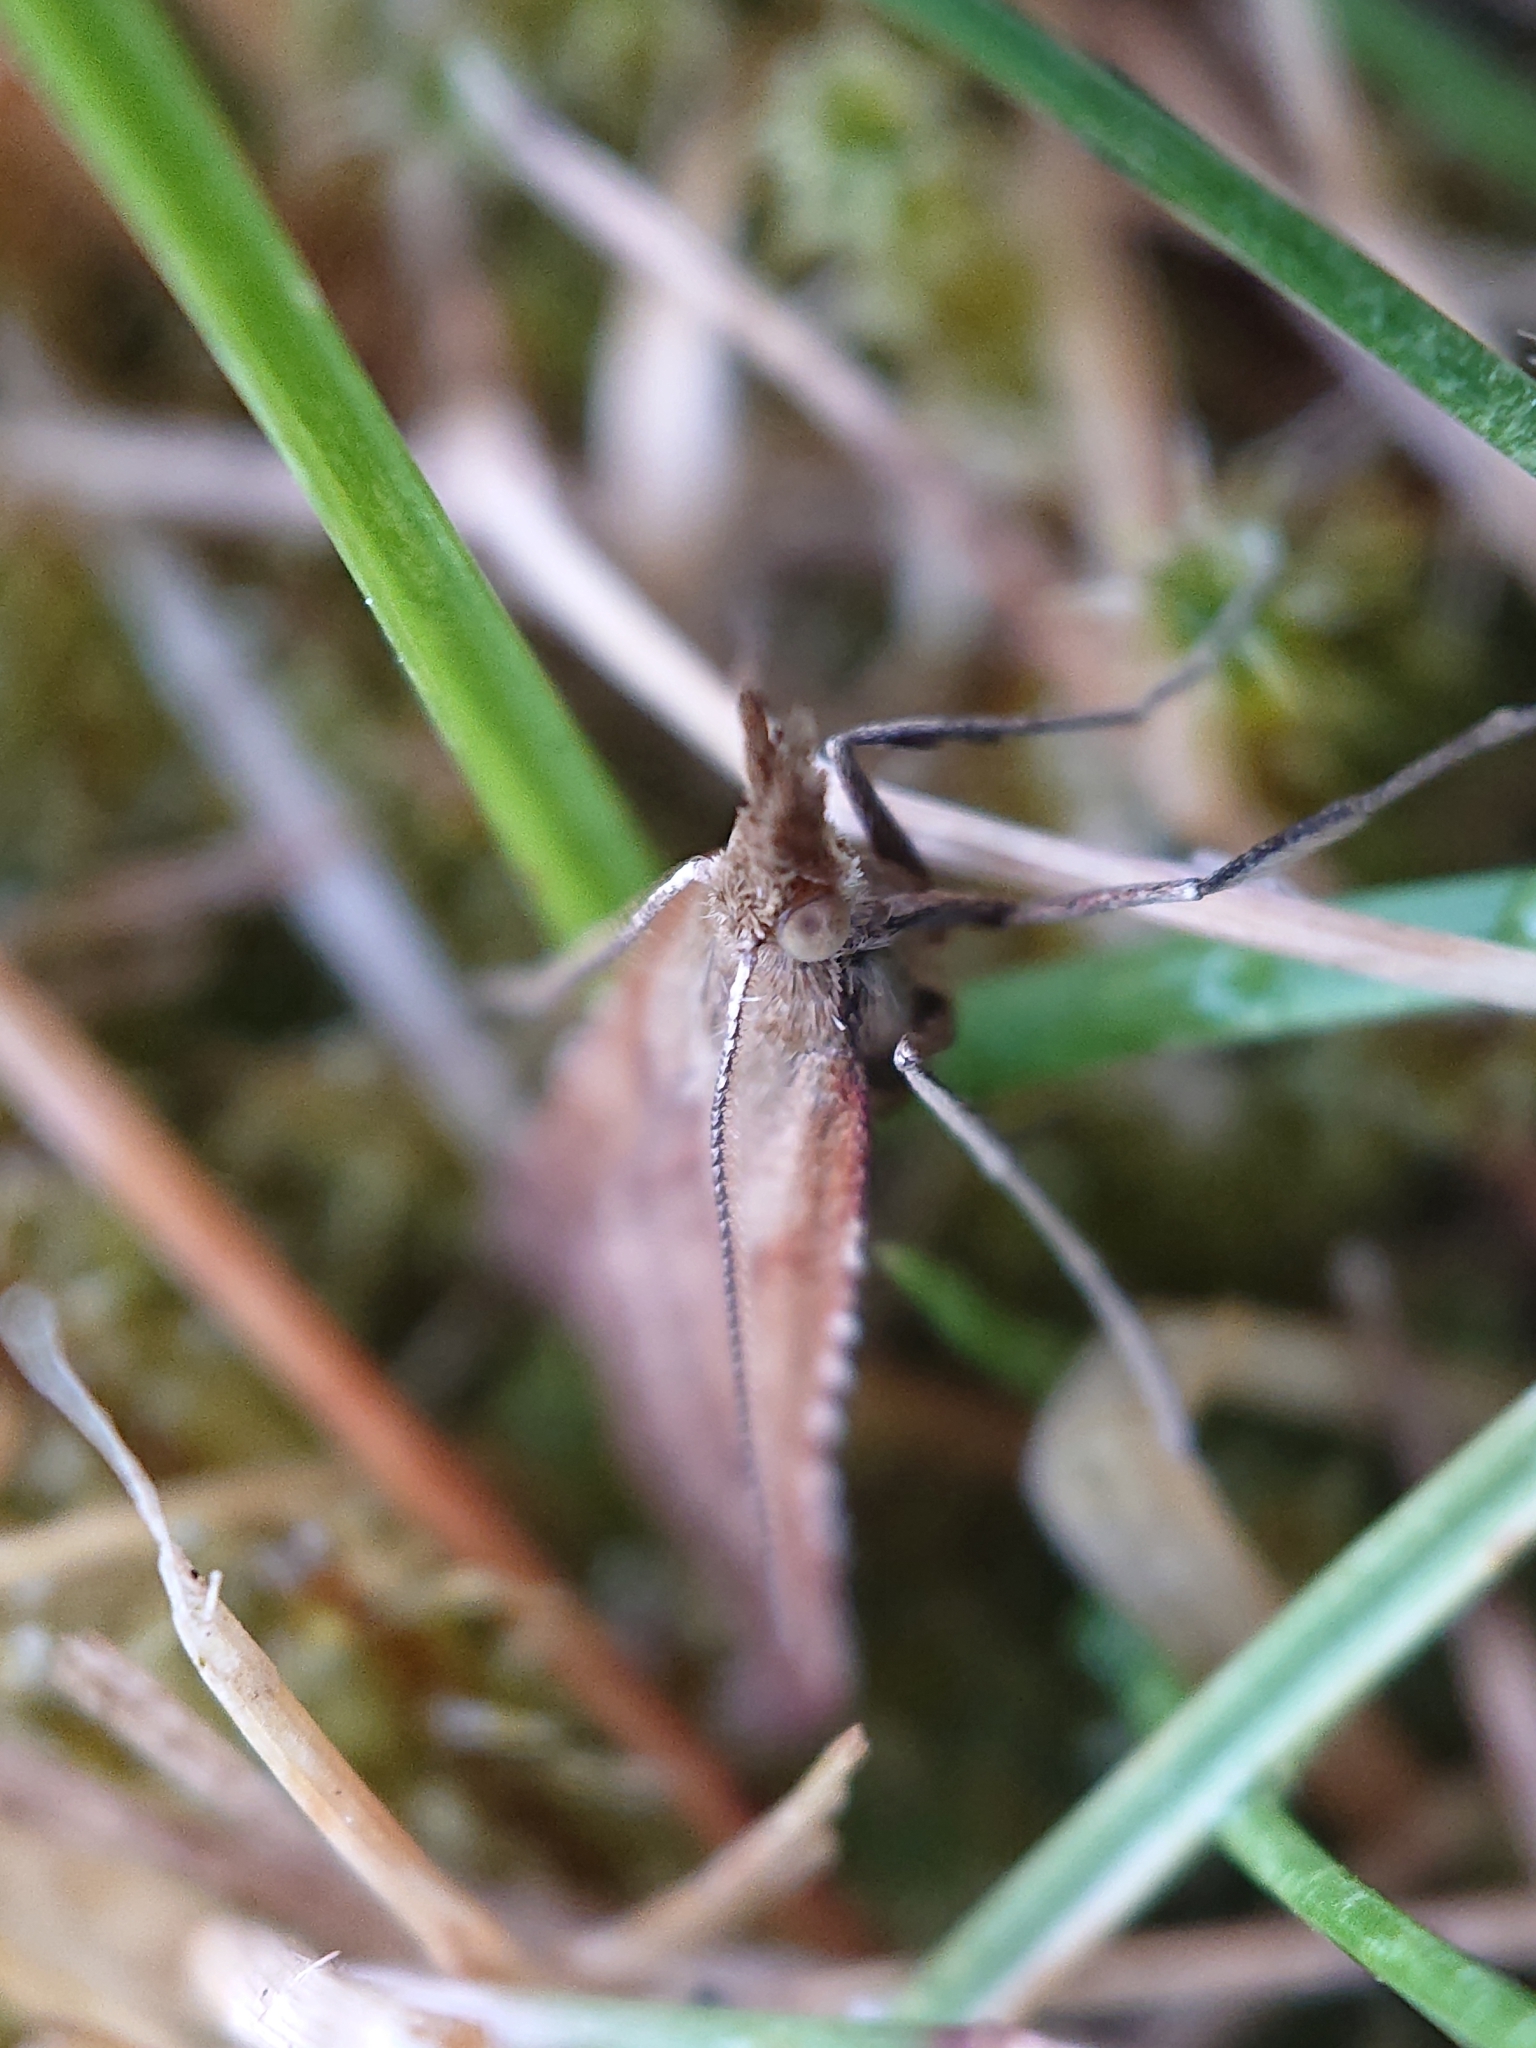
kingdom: Animalia
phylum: Arthropoda
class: Insecta
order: Lepidoptera
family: Pyralidae
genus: Synaphe
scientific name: Synaphe punctalis
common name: Long-legged tabby
